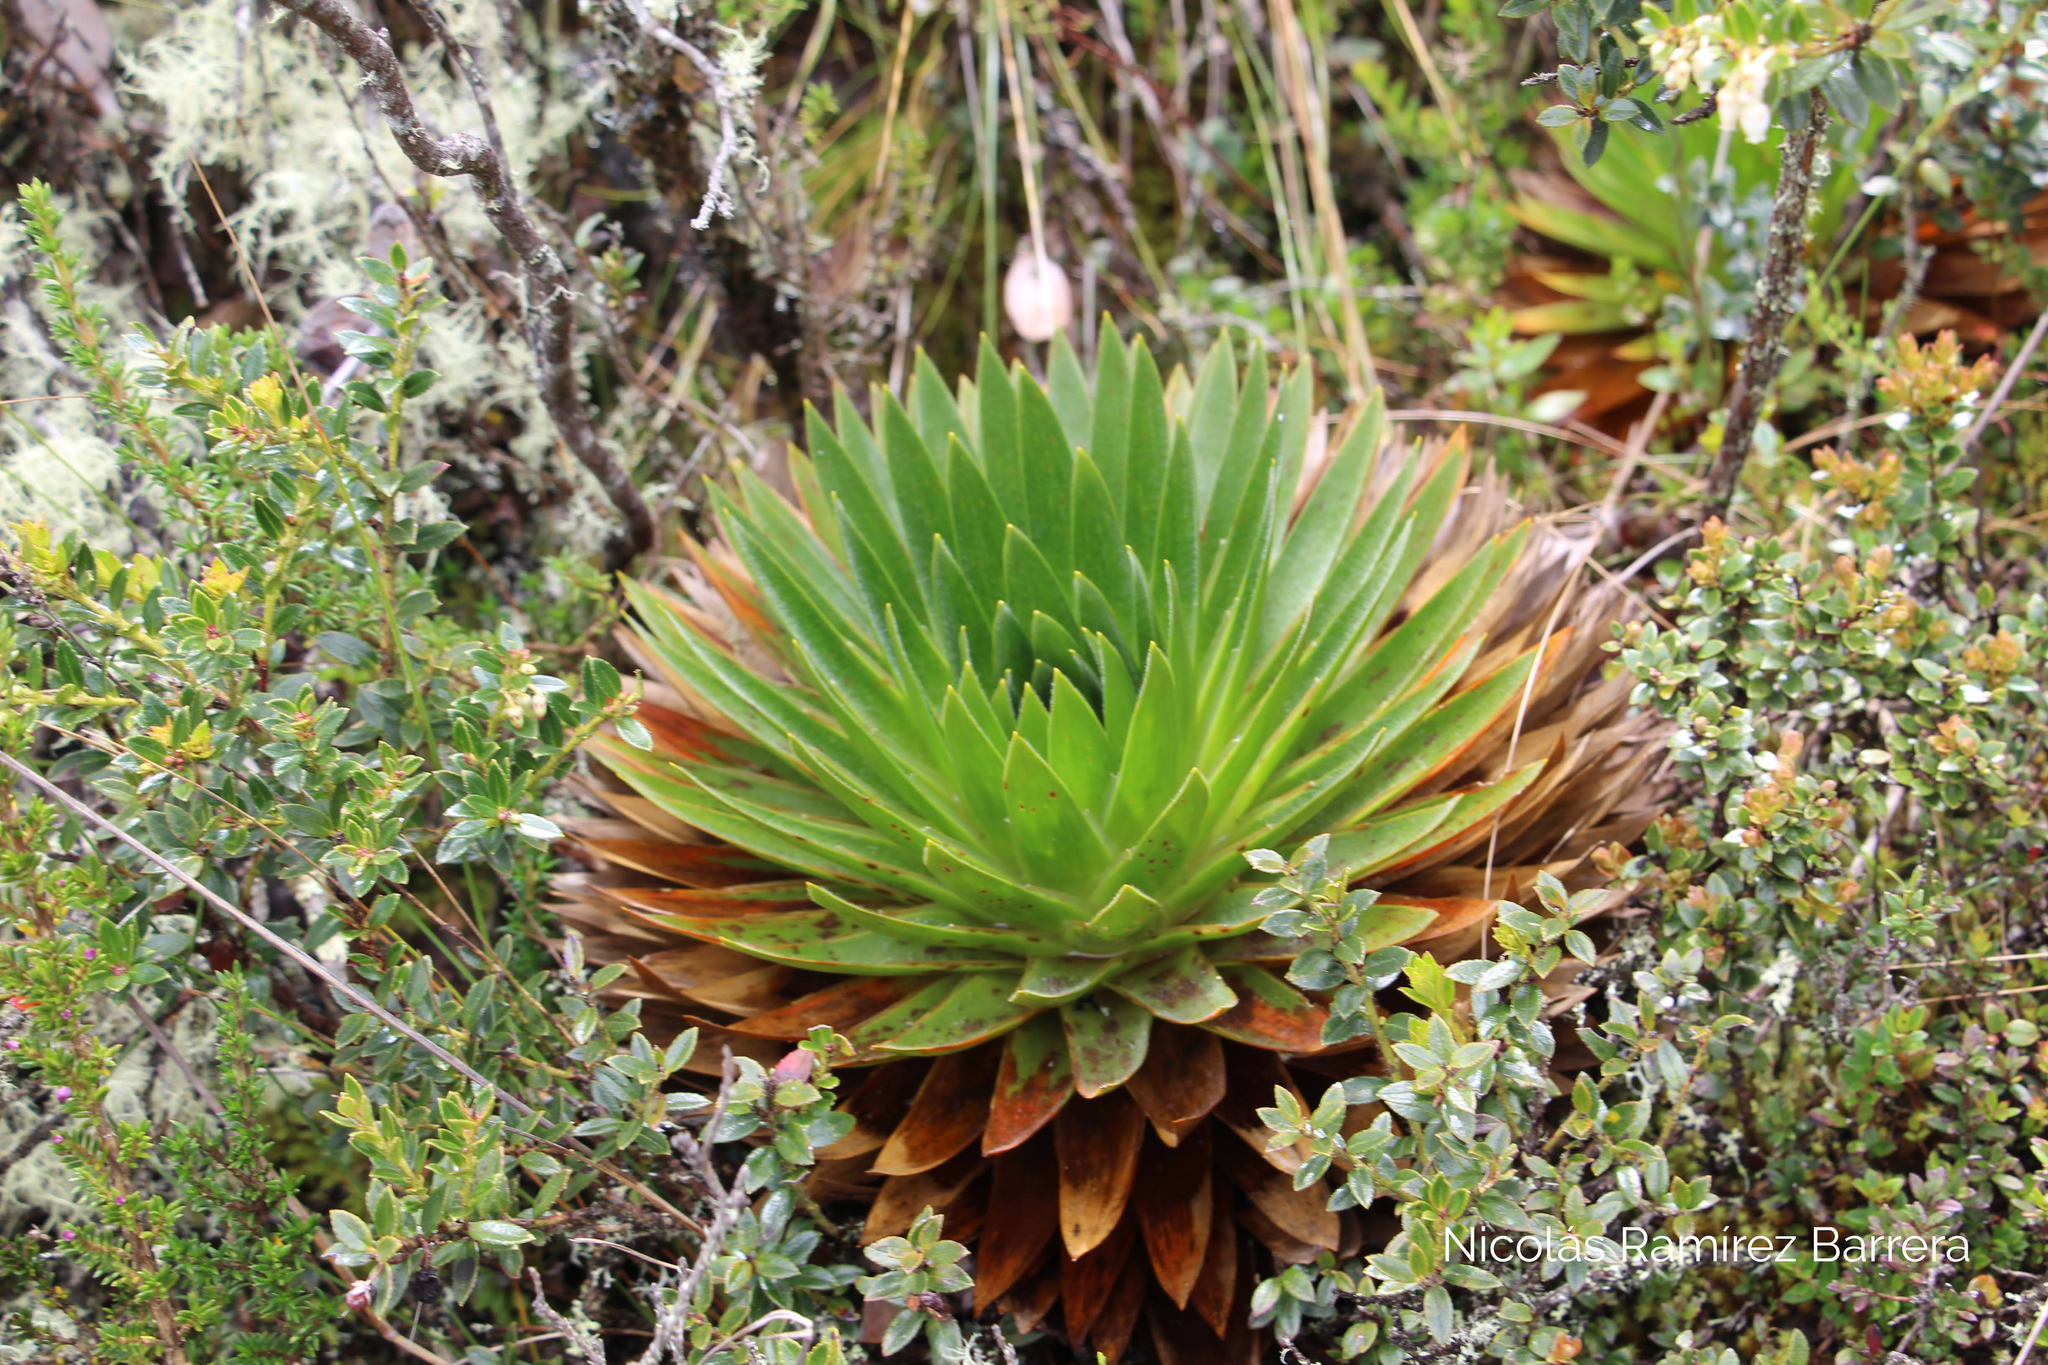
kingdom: Plantae
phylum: Tracheophyta
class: Liliopsida
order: Poales
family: Eriocaulaceae
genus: Paepalanthus
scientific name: Paepalanthus alpinus
